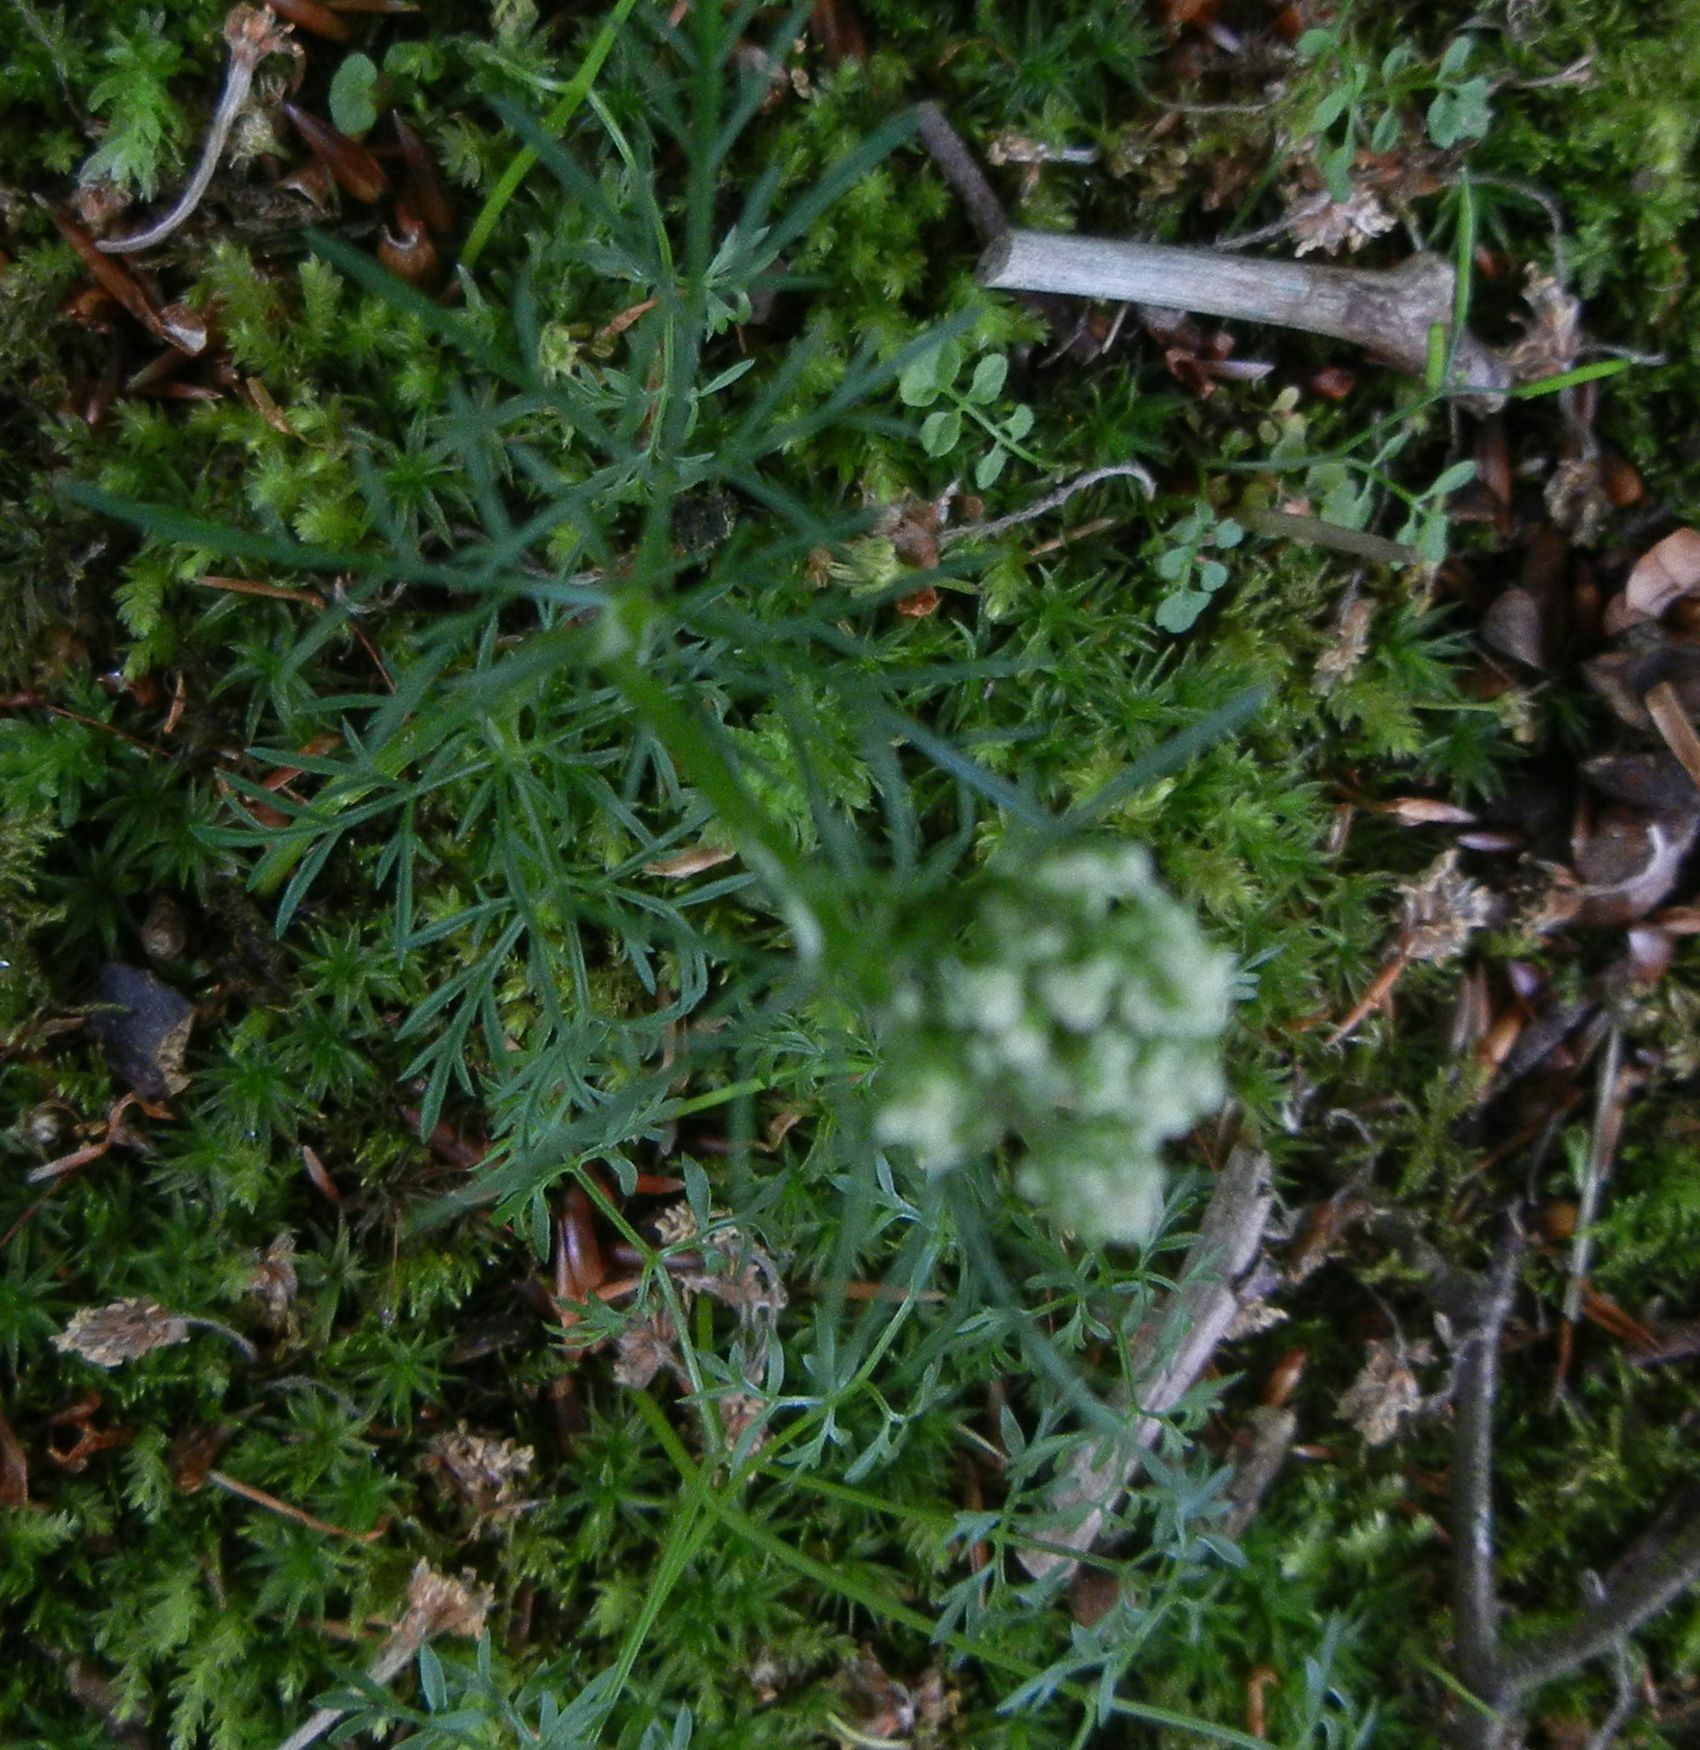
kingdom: Plantae
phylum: Tracheophyta
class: Magnoliopsida
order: Apiales
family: Apiaceae
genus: Conopodium
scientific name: Conopodium majus
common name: Pignut
